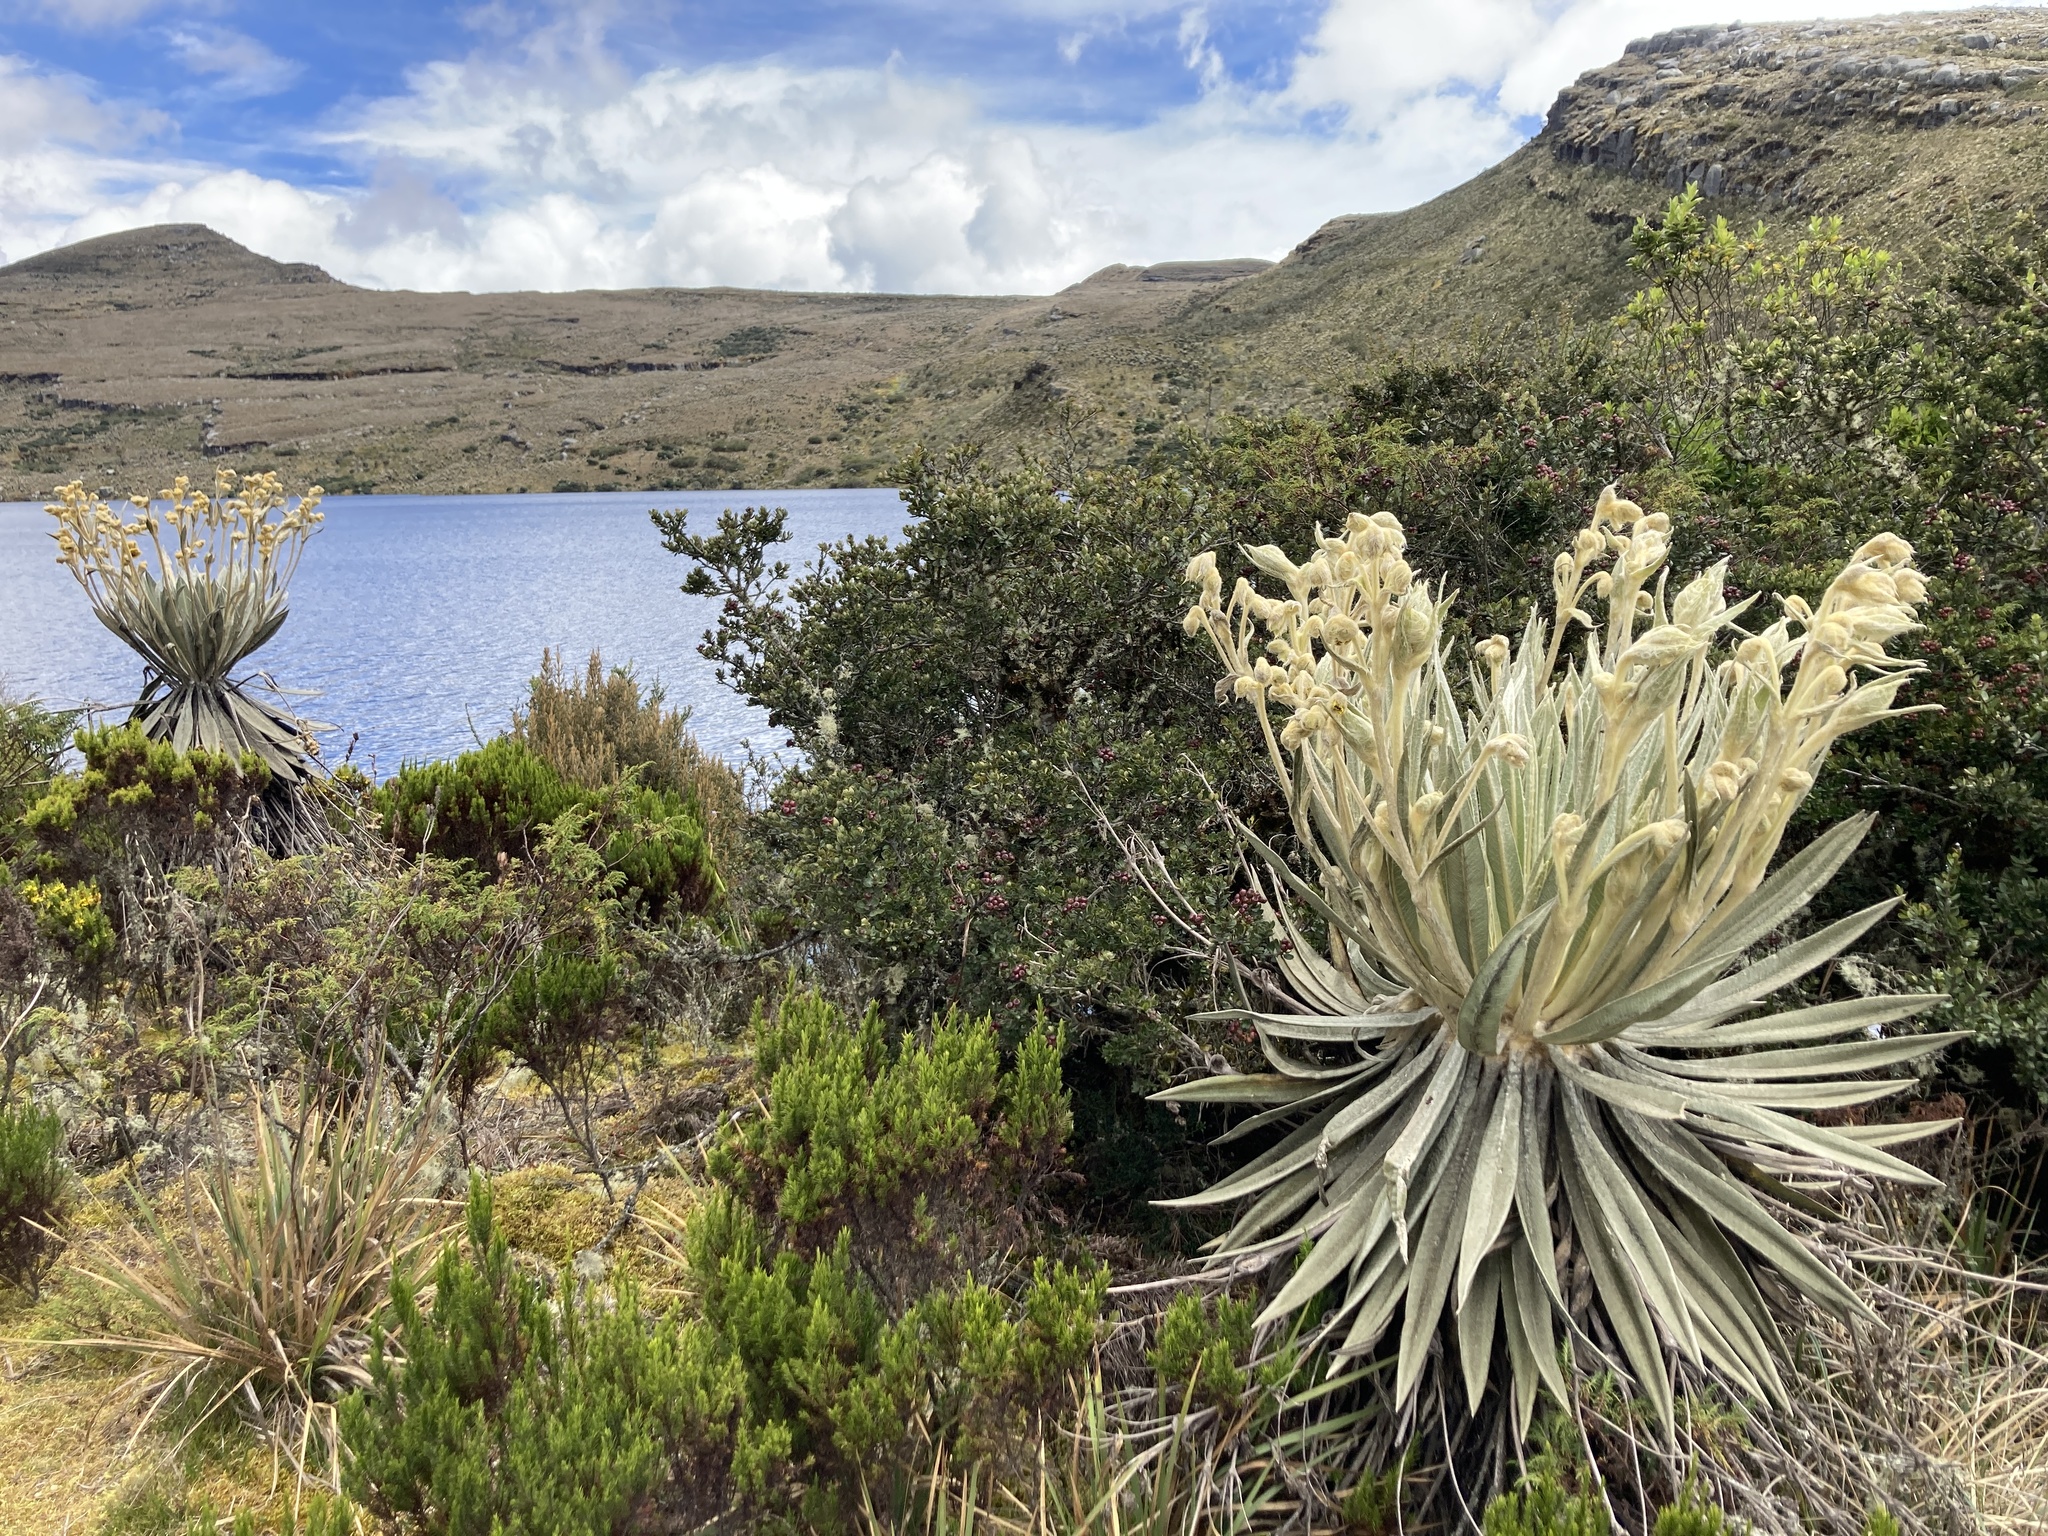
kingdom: Plantae
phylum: Tracheophyta
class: Magnoliopsida
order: Asterales
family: Asteraceae
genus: Espeletia
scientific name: Espeletia grandiflora
